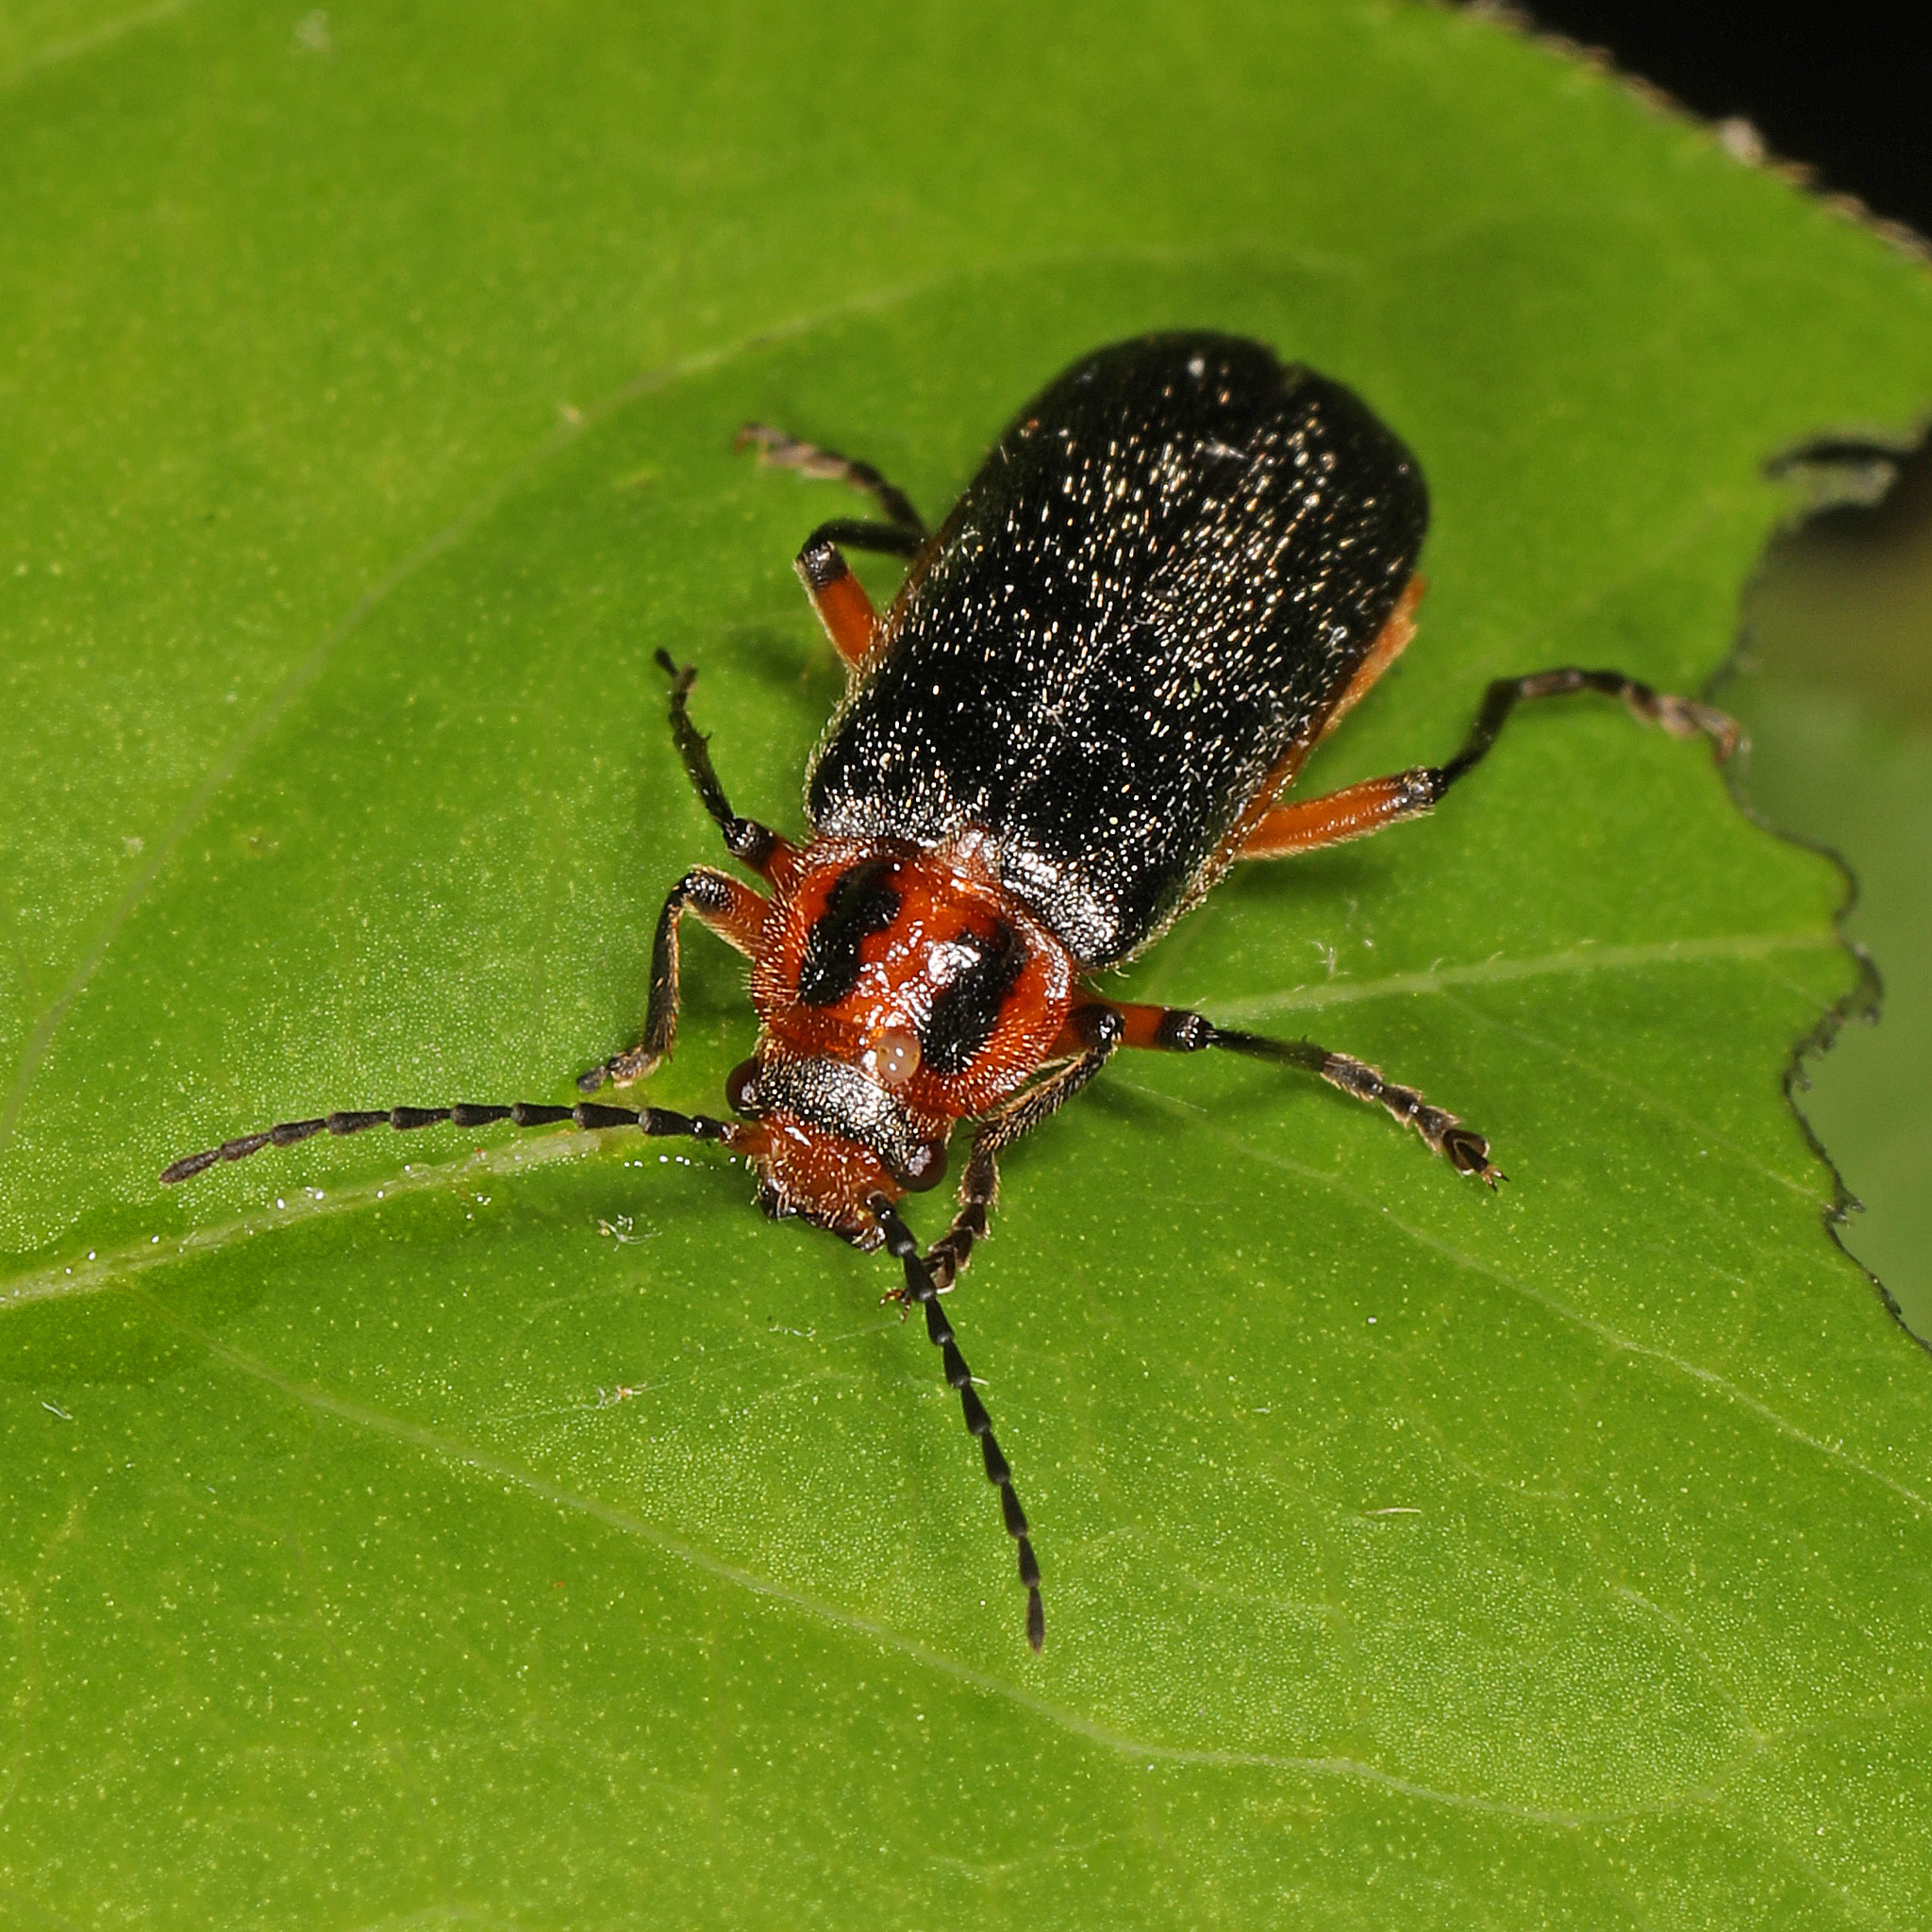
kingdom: Animalia
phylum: Arthropoda
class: Insecta
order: Coleoptera
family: Cantharidae
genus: Atalantycha
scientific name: Atalantycha bilineata
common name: Two-lined leatherwing
